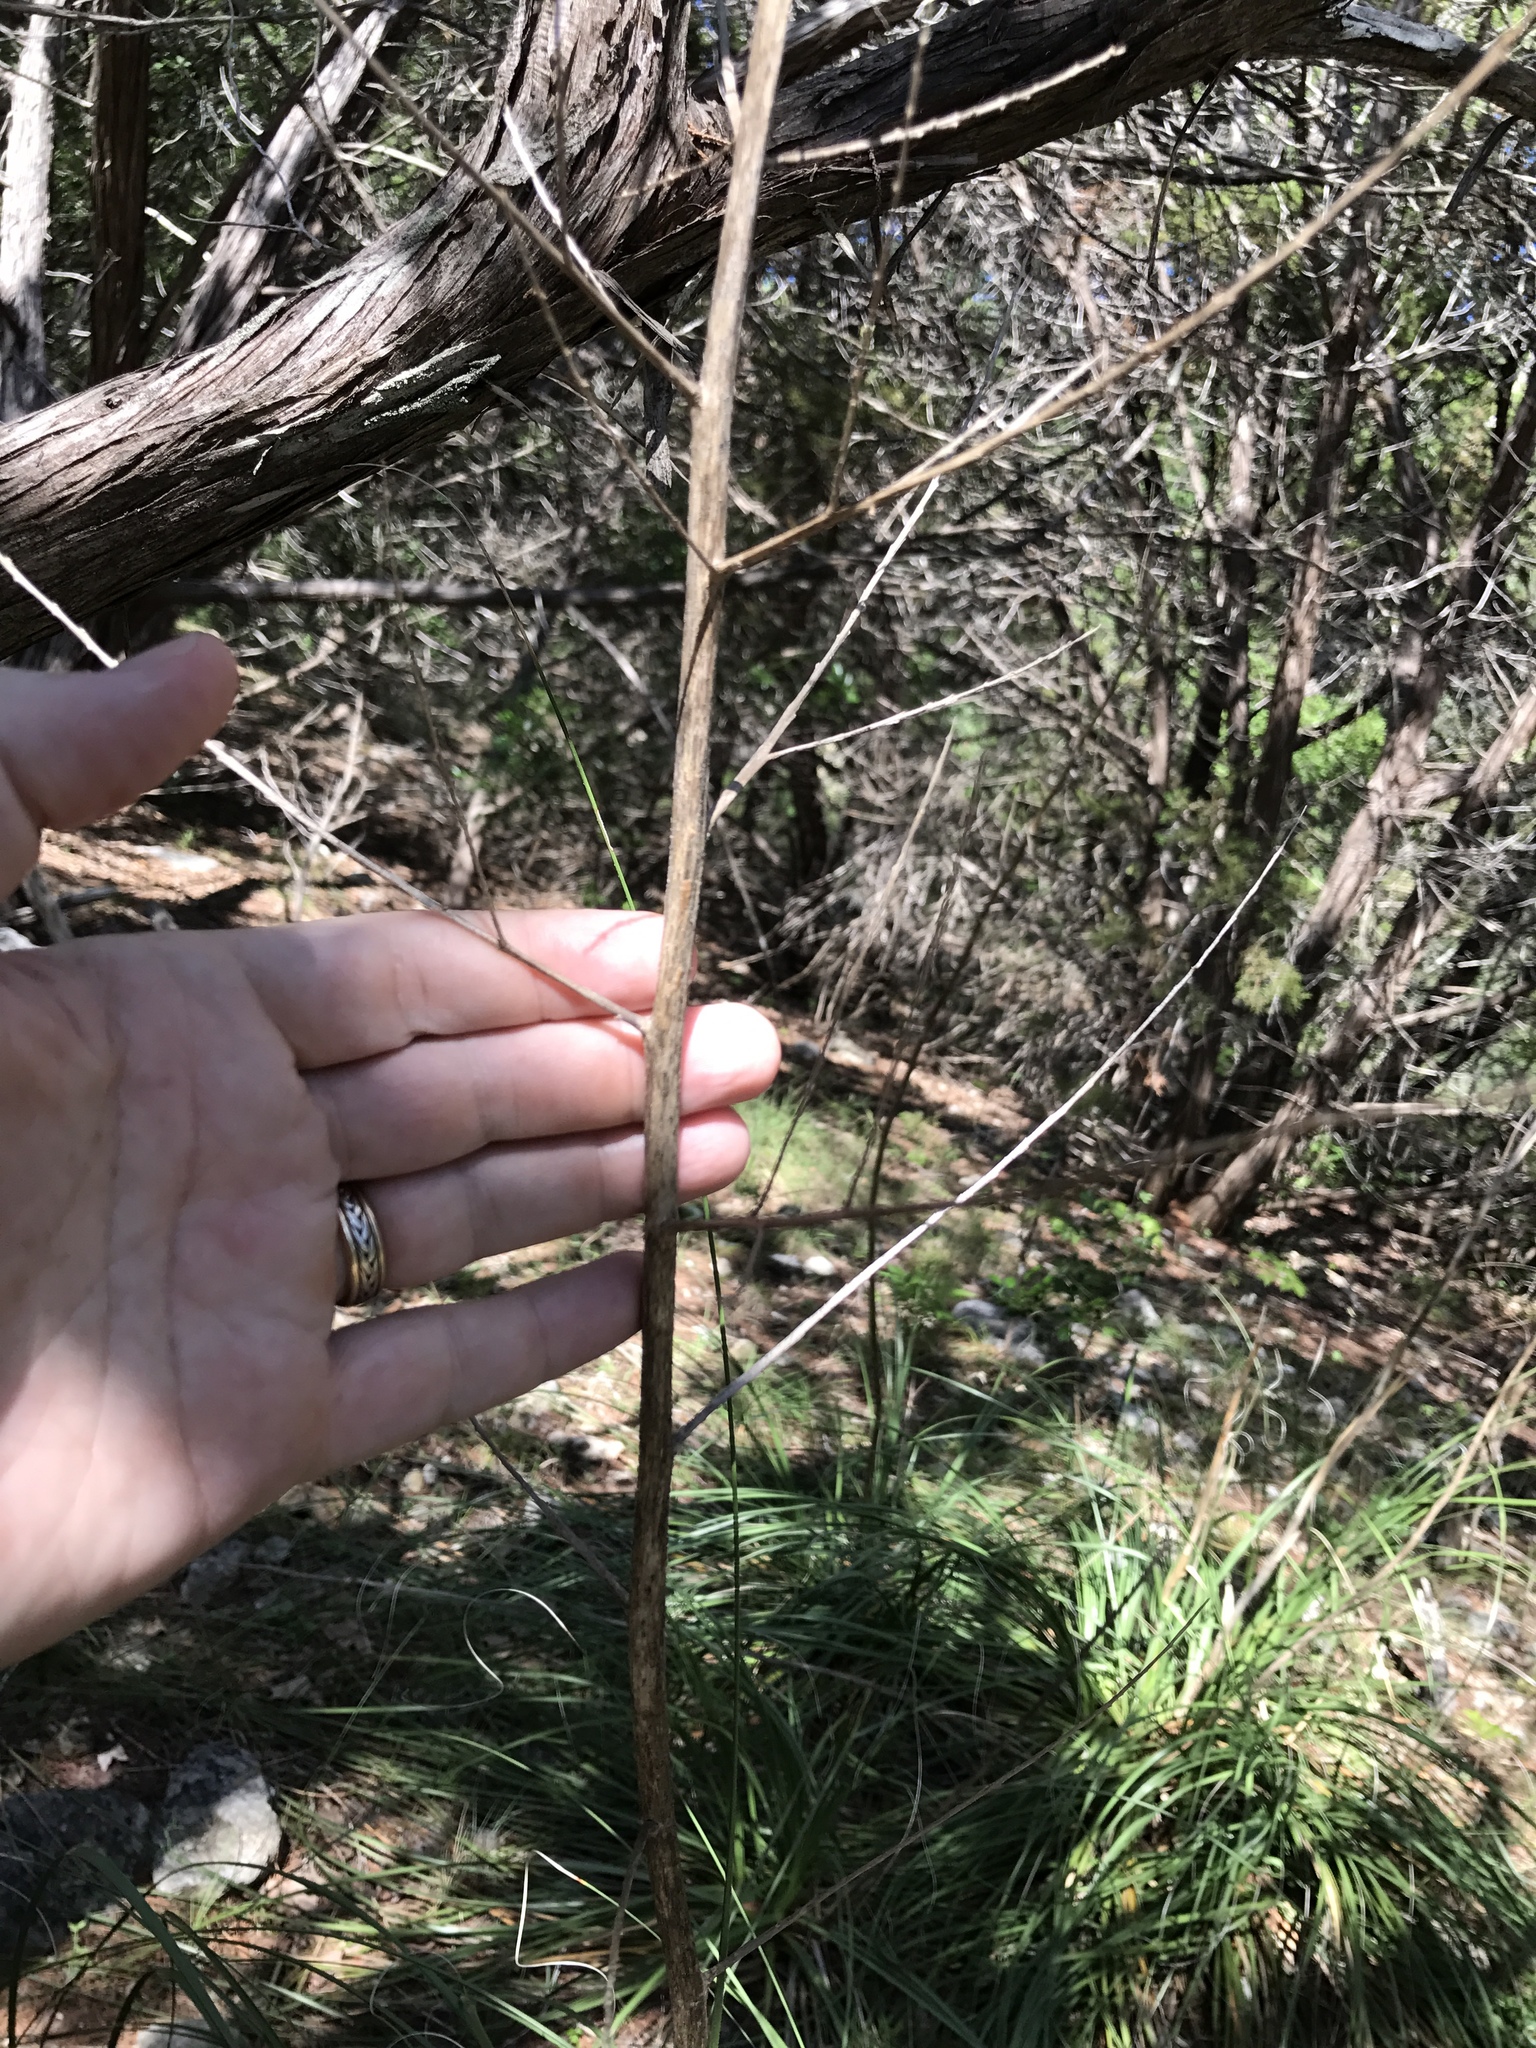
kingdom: Plantae
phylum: Tracheophyta
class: Liliopsida
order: Asparagales
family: Asparagaceae
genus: Nolina
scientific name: Nolina lindheimeriana
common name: Lindheimer's bear-grass
